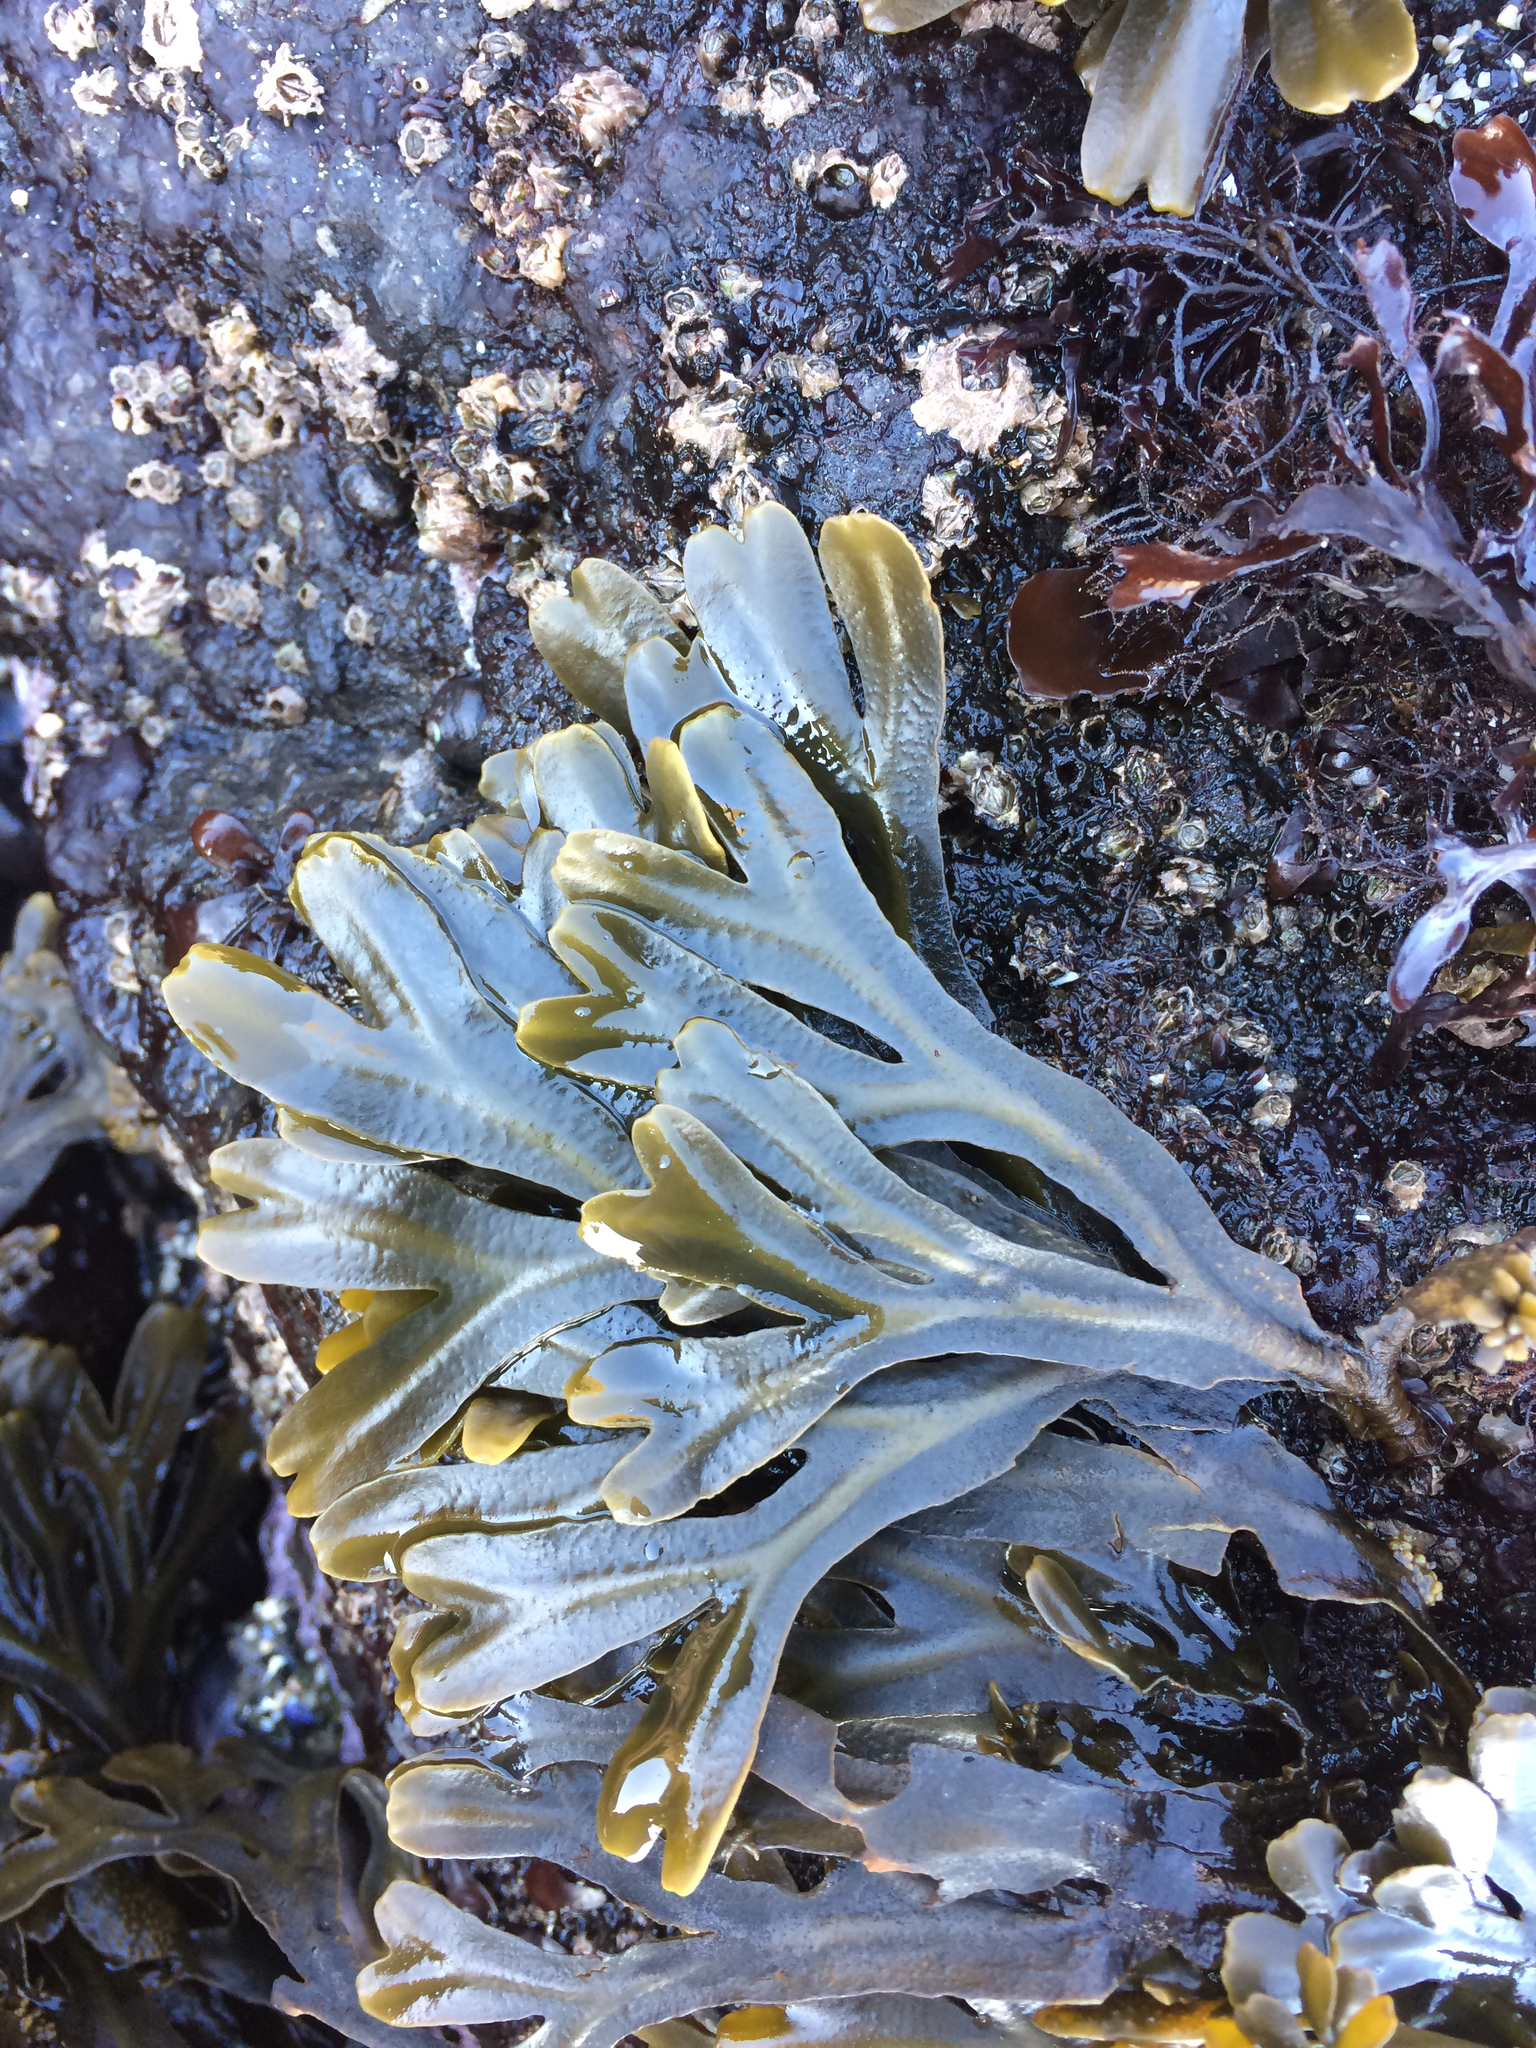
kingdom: Chromista
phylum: Ochrophyta
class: Phaeophyceae
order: Fucales
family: Fucaceae
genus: Fucus
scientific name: Fucus distichus
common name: Rockweed
